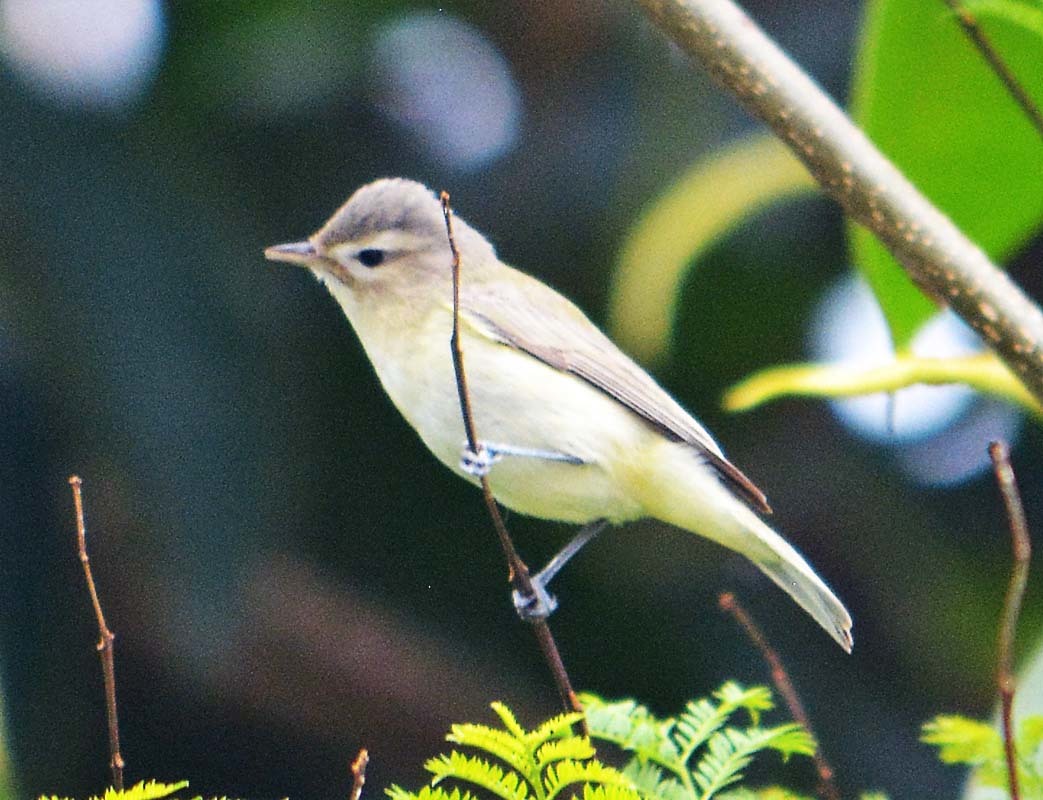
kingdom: Animalia
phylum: Chordata
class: Aves
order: Passeriformes
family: Vireonidae
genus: Vireo
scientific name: Vireo gilvus
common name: Warbling vireo
